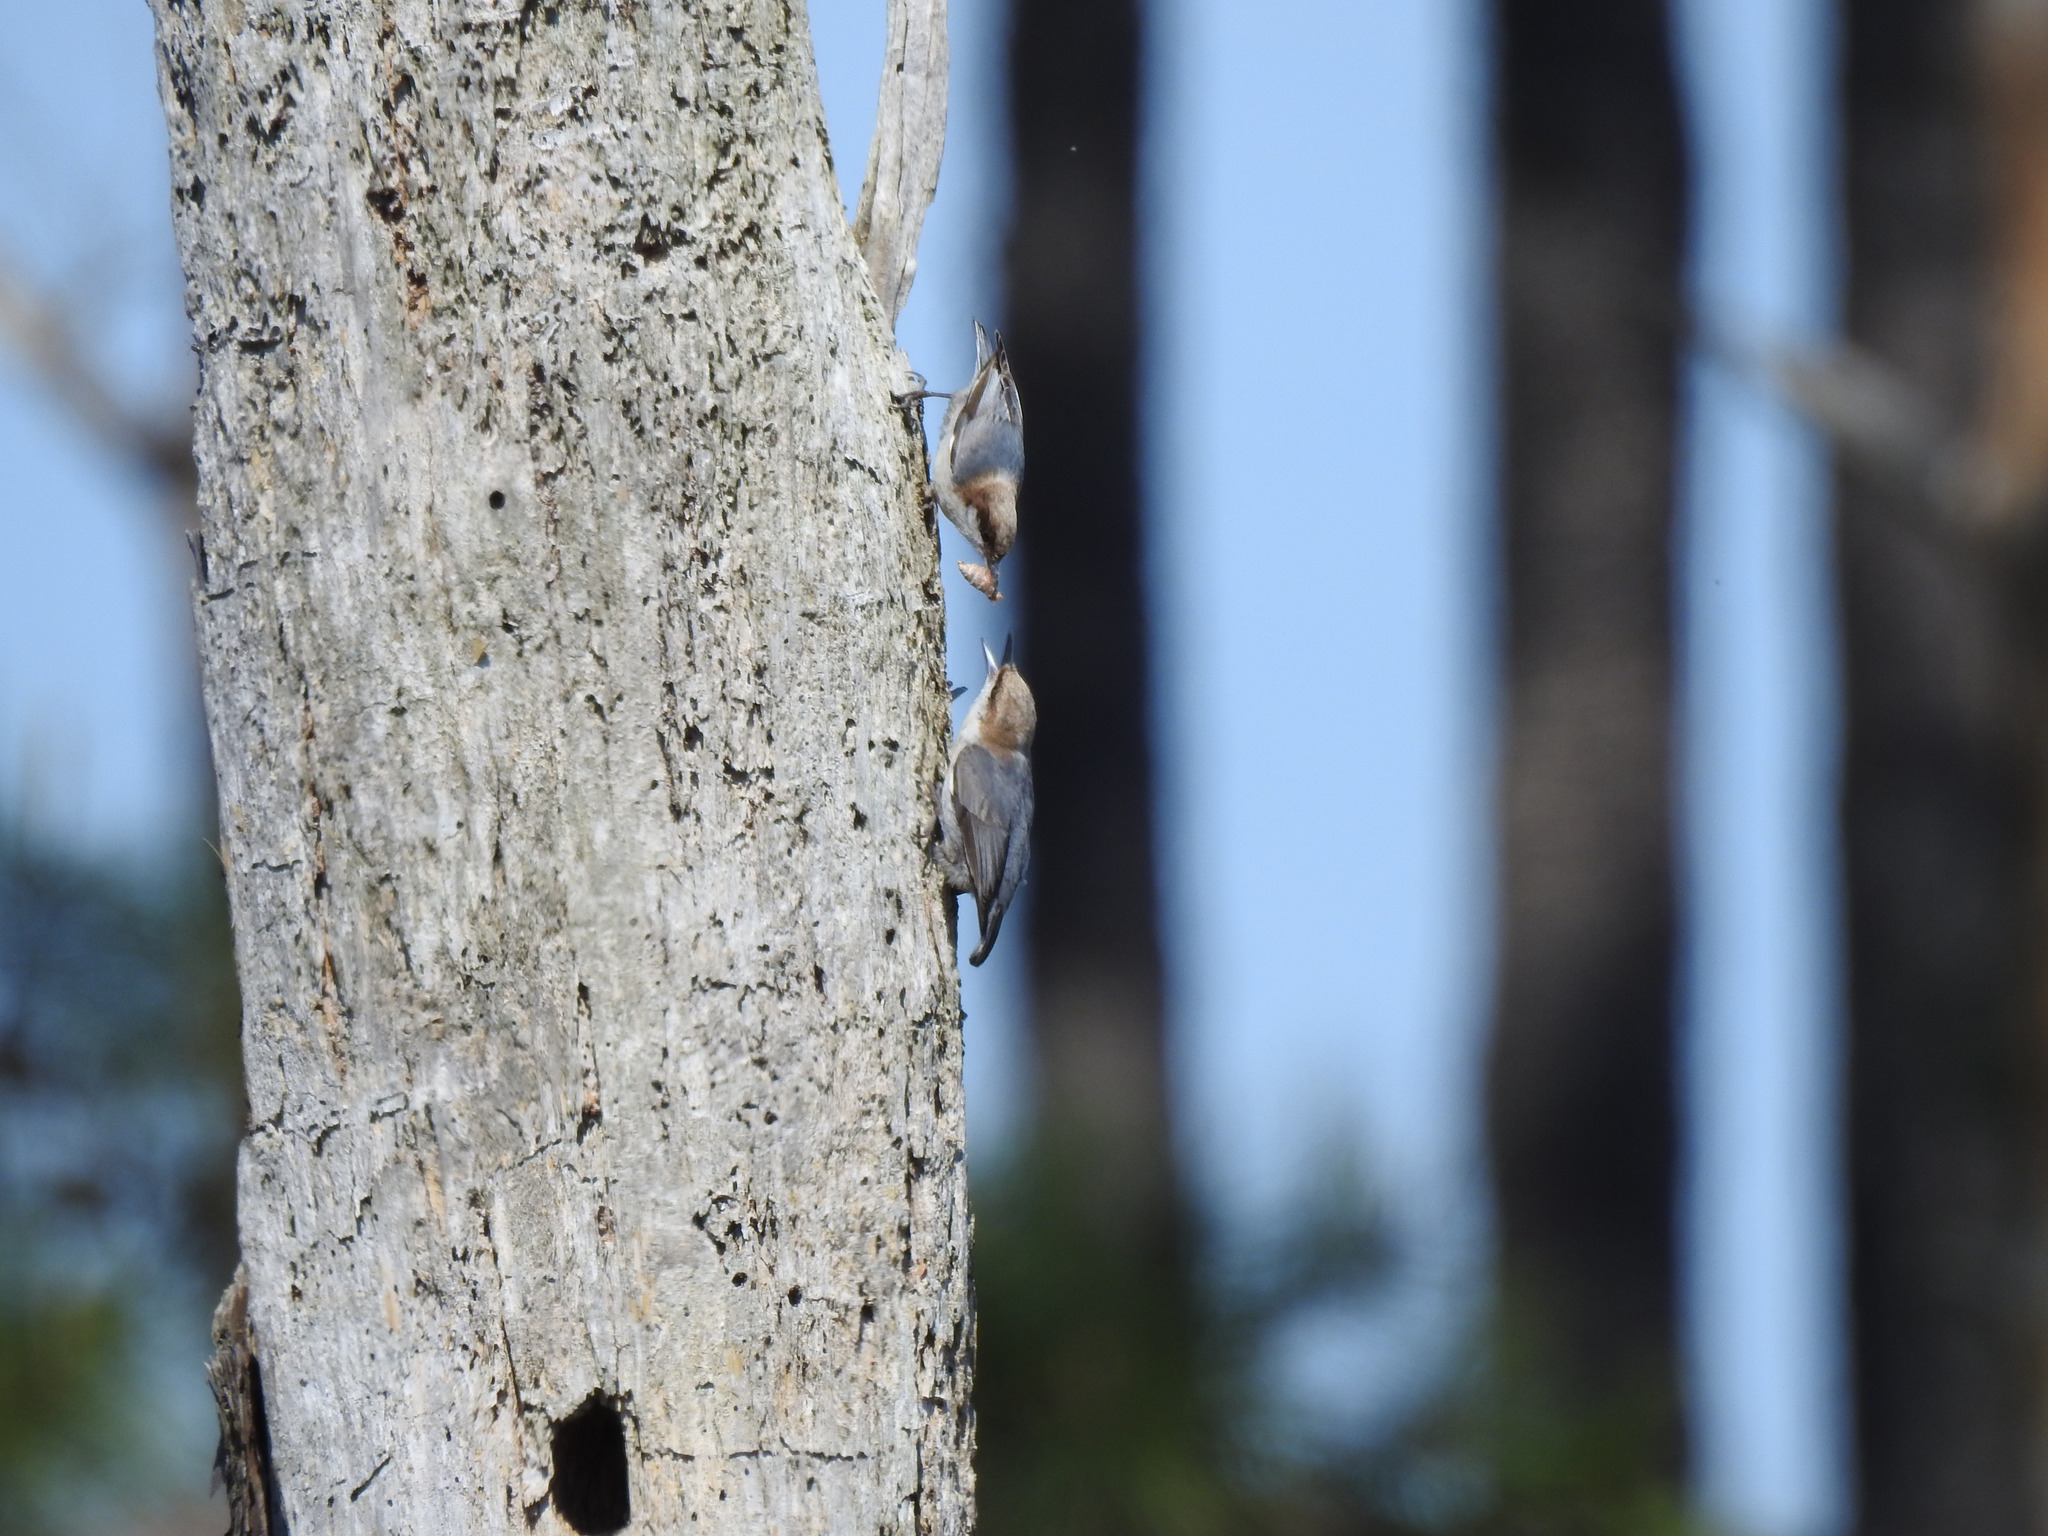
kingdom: Animalia
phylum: Chordata
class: Aves
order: Passeriformes
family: Sittidae
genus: Sitta
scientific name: Sitta pusilla
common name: Brown-headed nuthatch
